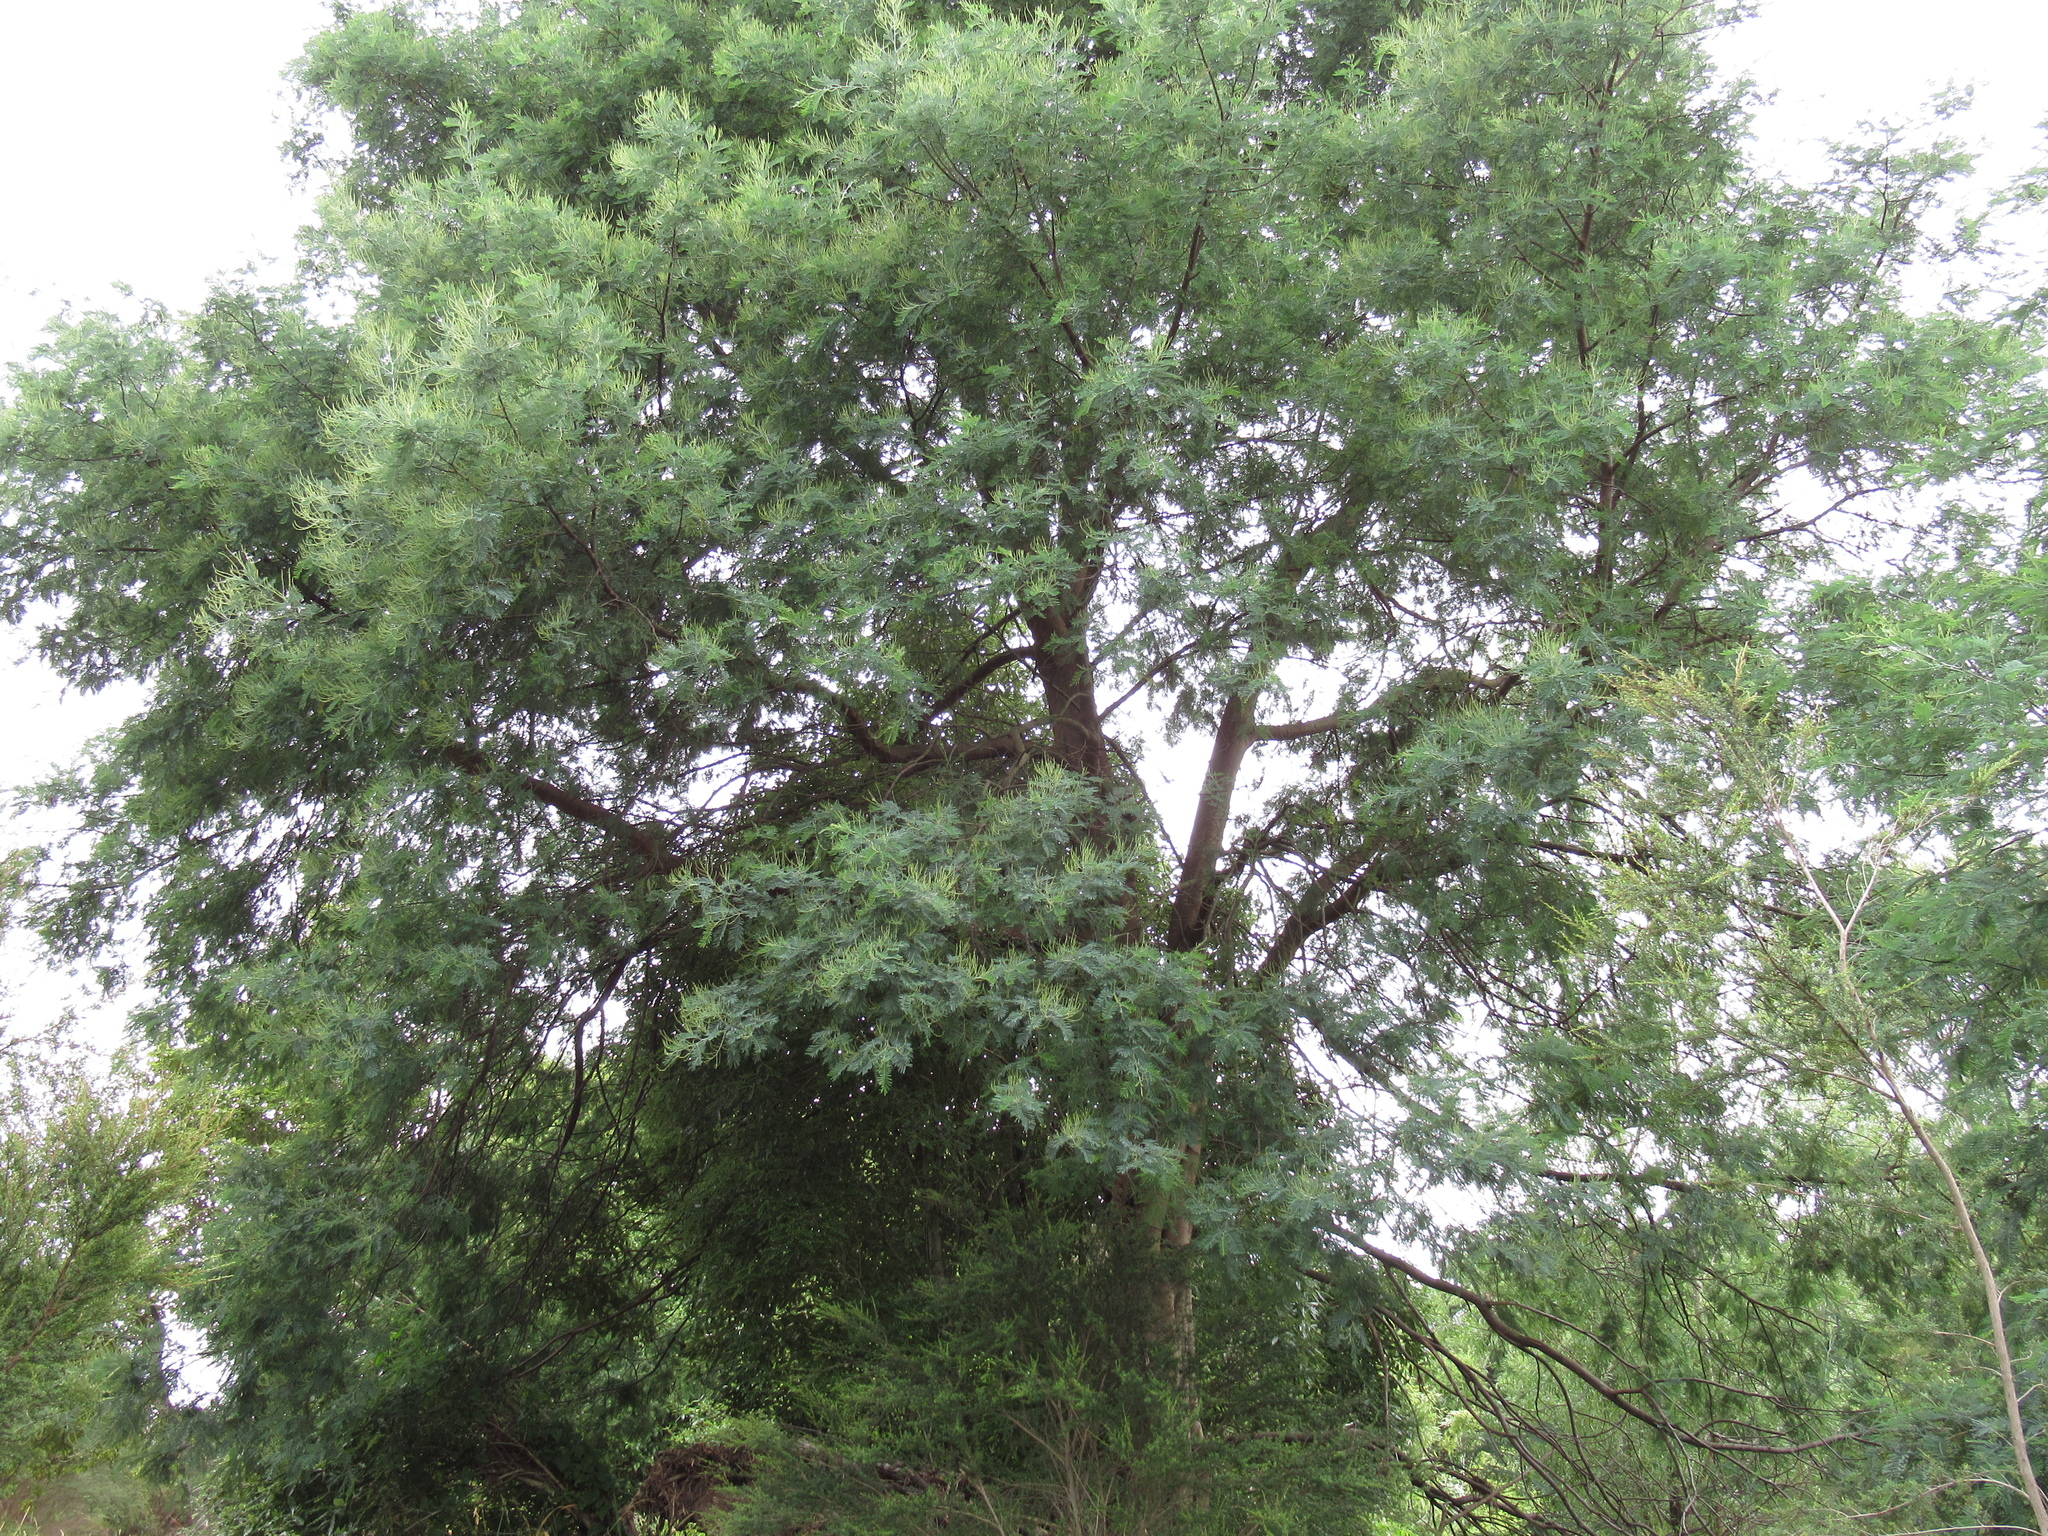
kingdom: Plantae
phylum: Tracheophyta
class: Magnoliopsida
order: Fabales
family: Fabaceae
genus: Paraserianthes
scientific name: Paraserianthes lophantha
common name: Plume albizia
